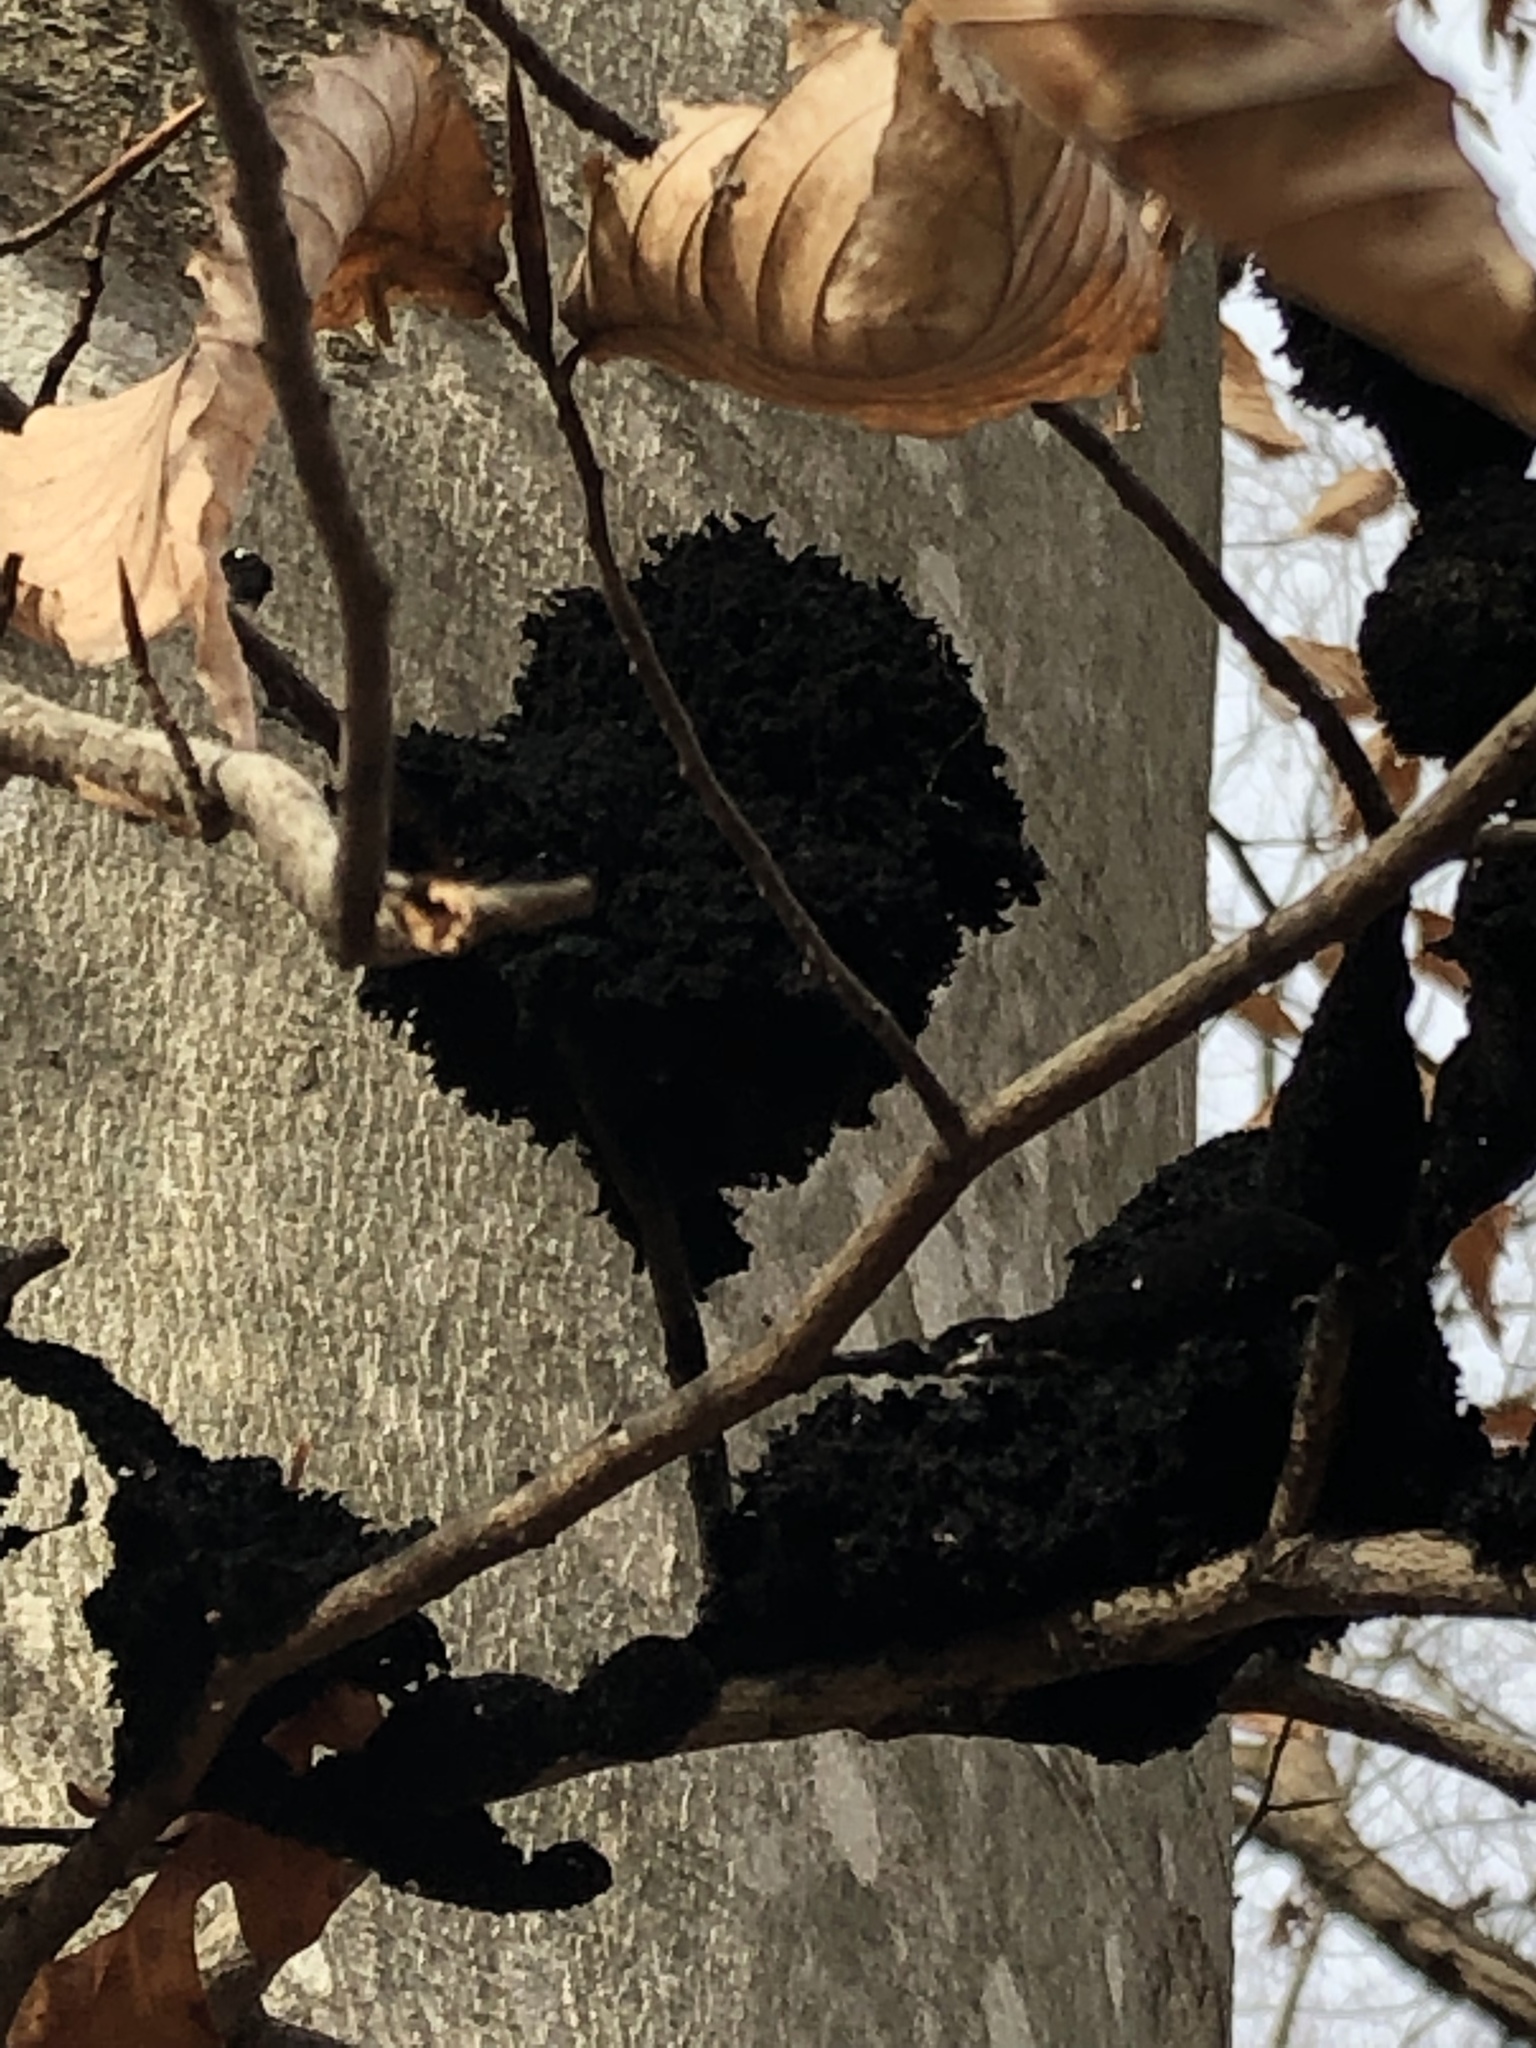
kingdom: Fungi
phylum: Ascomycota
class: Dothideomycetes
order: Capnodiales
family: Capnodiaceae
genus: Scorias
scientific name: Scorias spongiosa
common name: Black sooty mold
